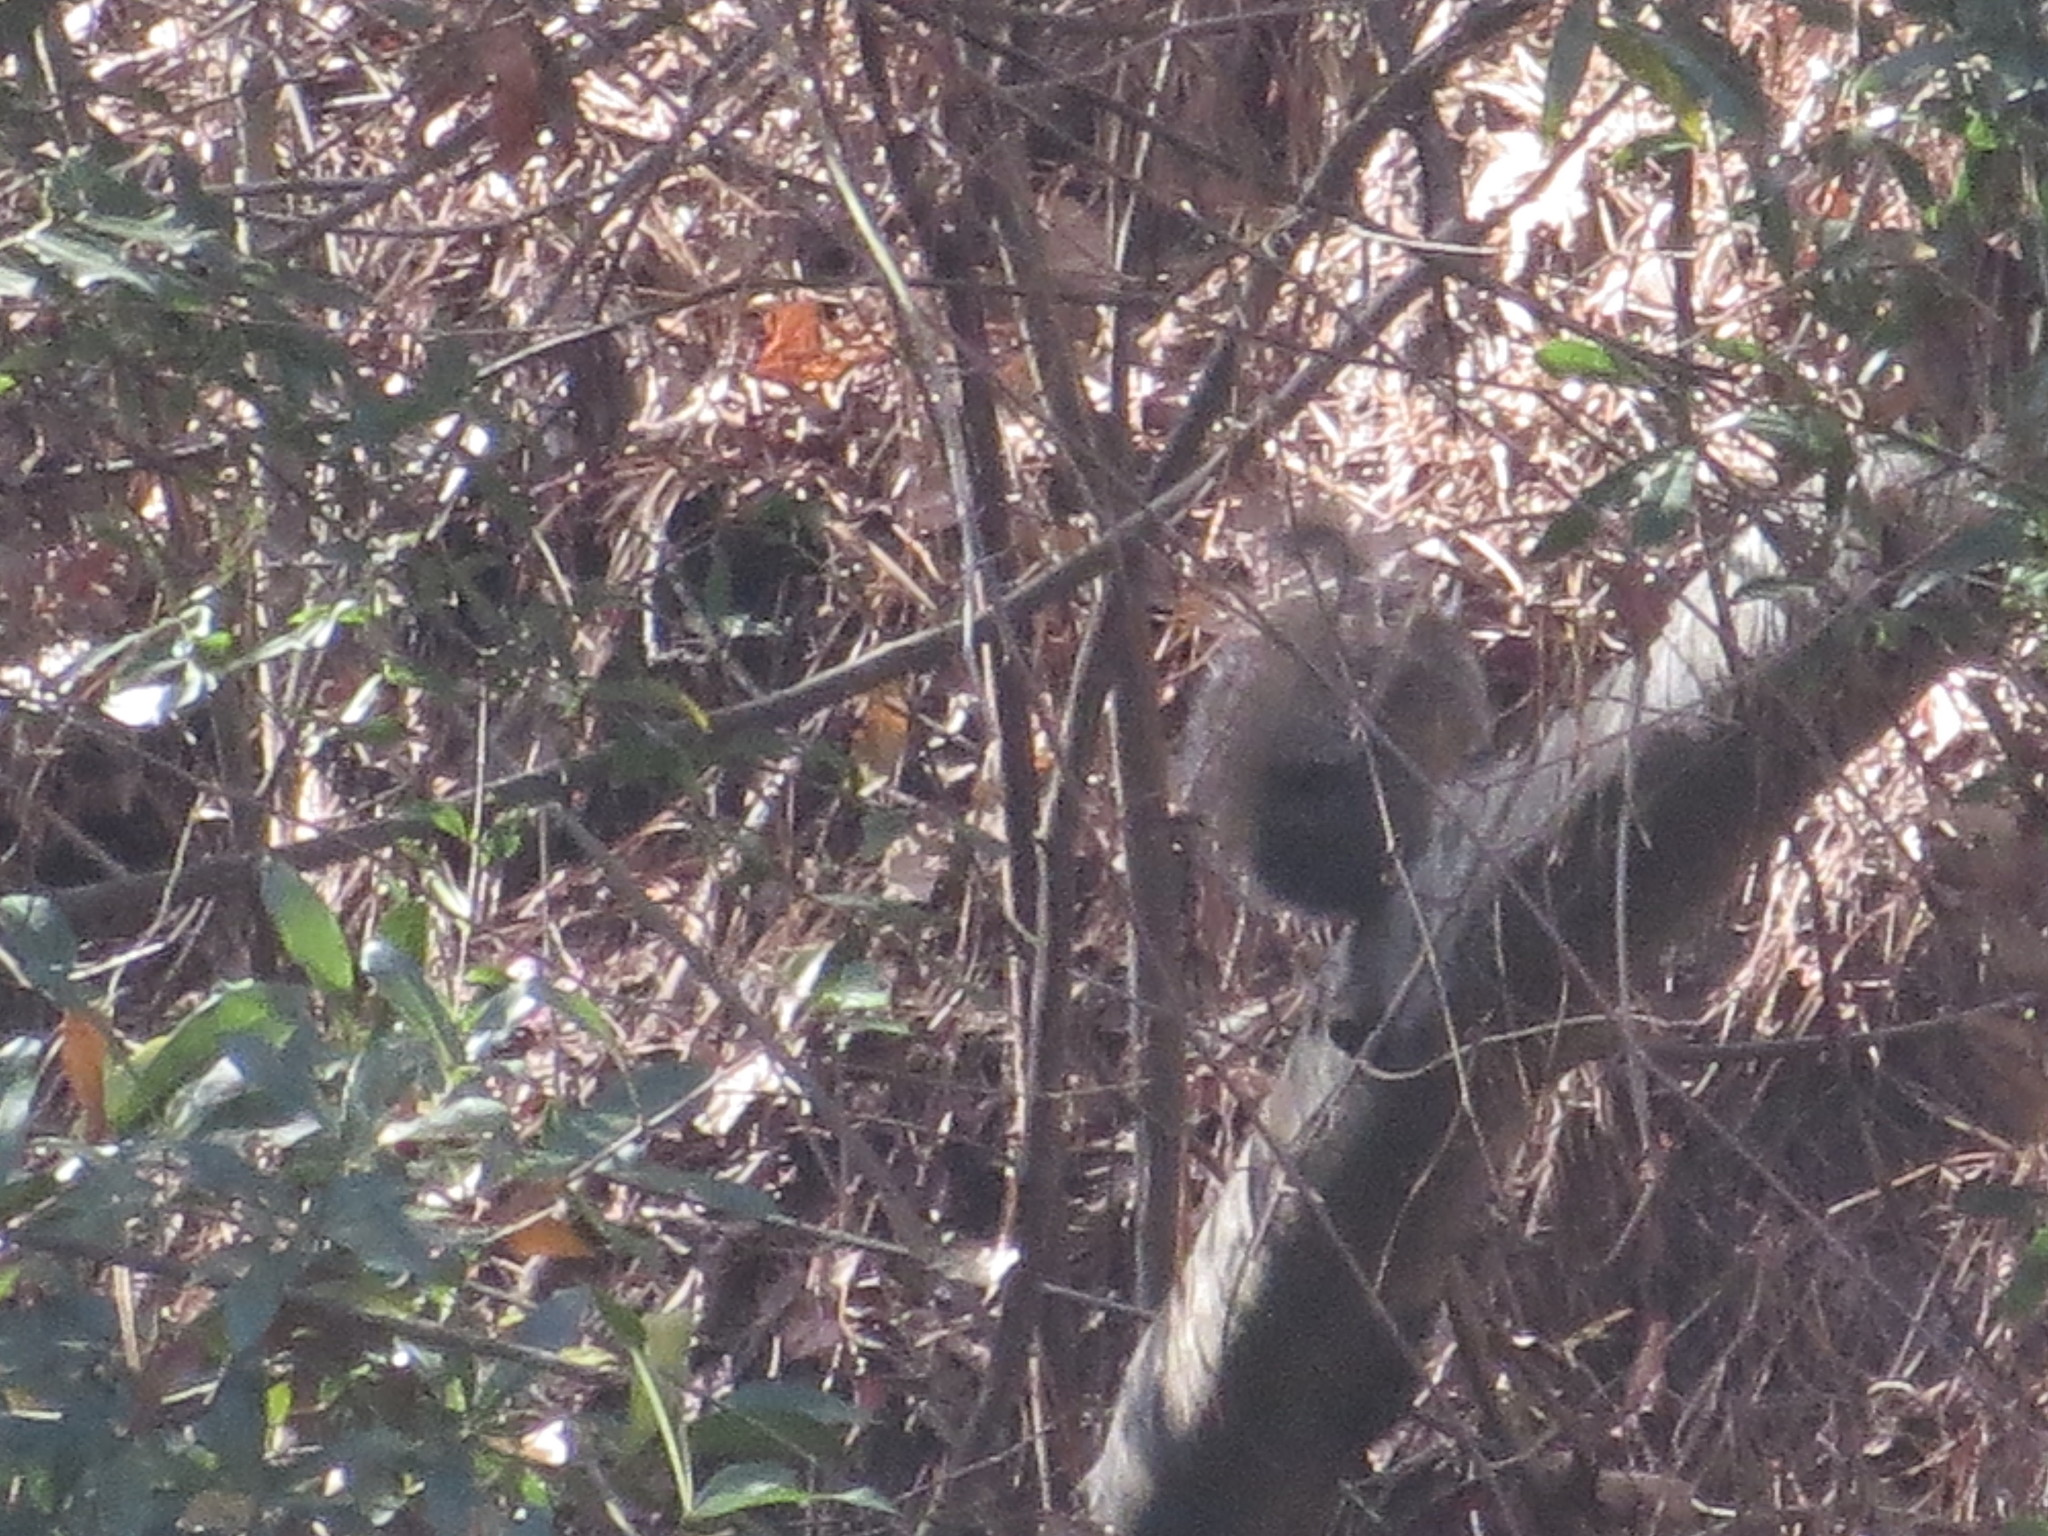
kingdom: Animalia
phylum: Chordata
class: Mammalia
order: Rodentia
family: Sciuridae
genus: Sciurus
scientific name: Sciurus carolinensis
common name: Eastern gray squirrel
